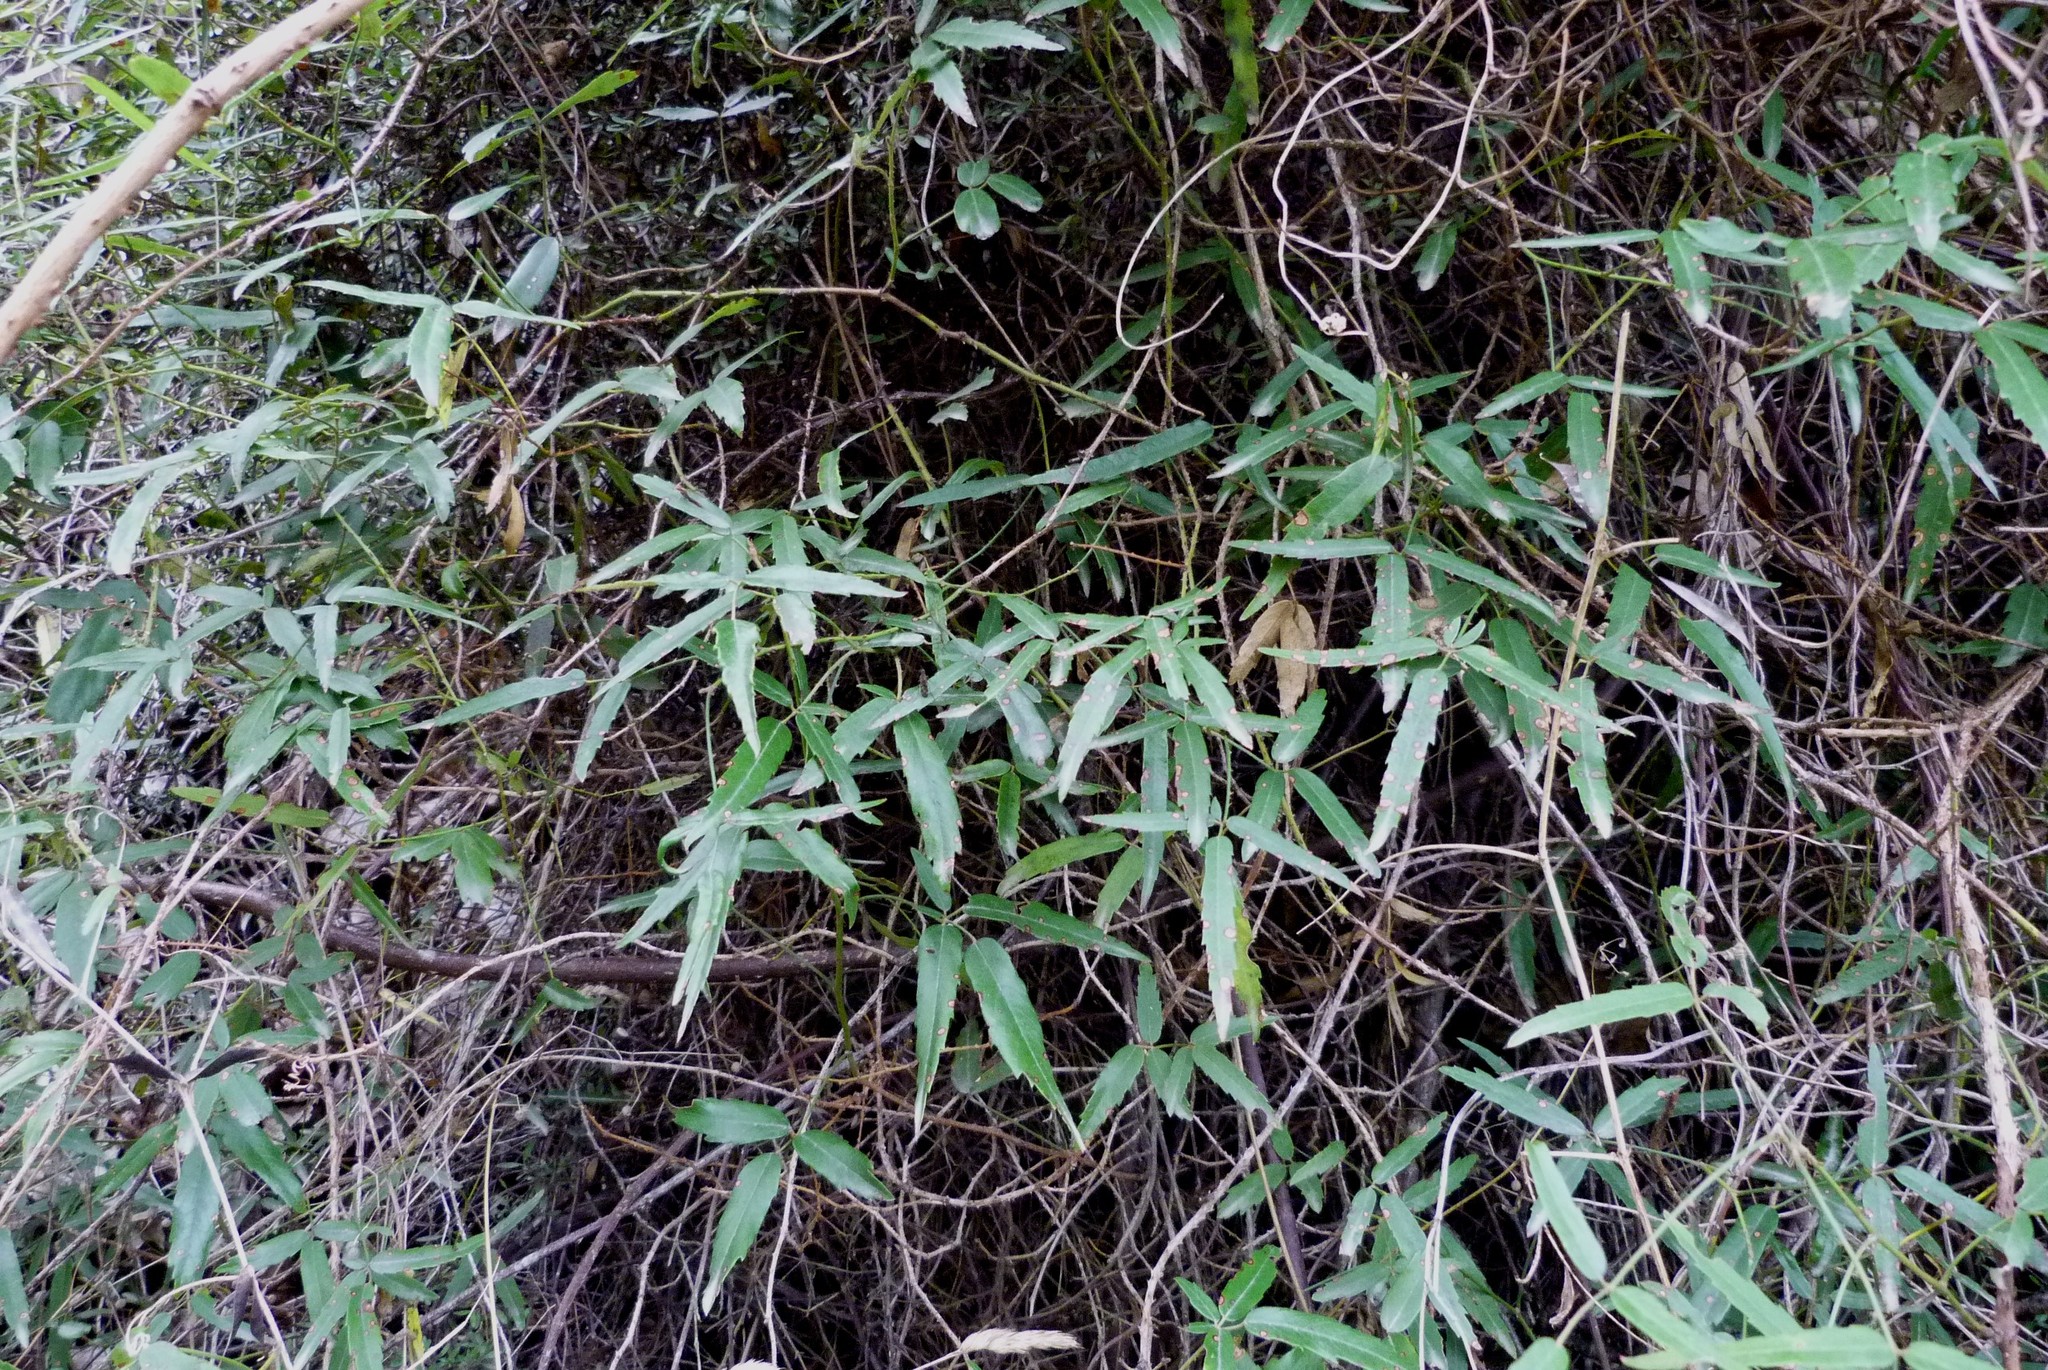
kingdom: Plantae
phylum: Tracheophyta
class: Magnoliopsida
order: Rosales
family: Rosaceae
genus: Rubus
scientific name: Rubus schmidelioides
